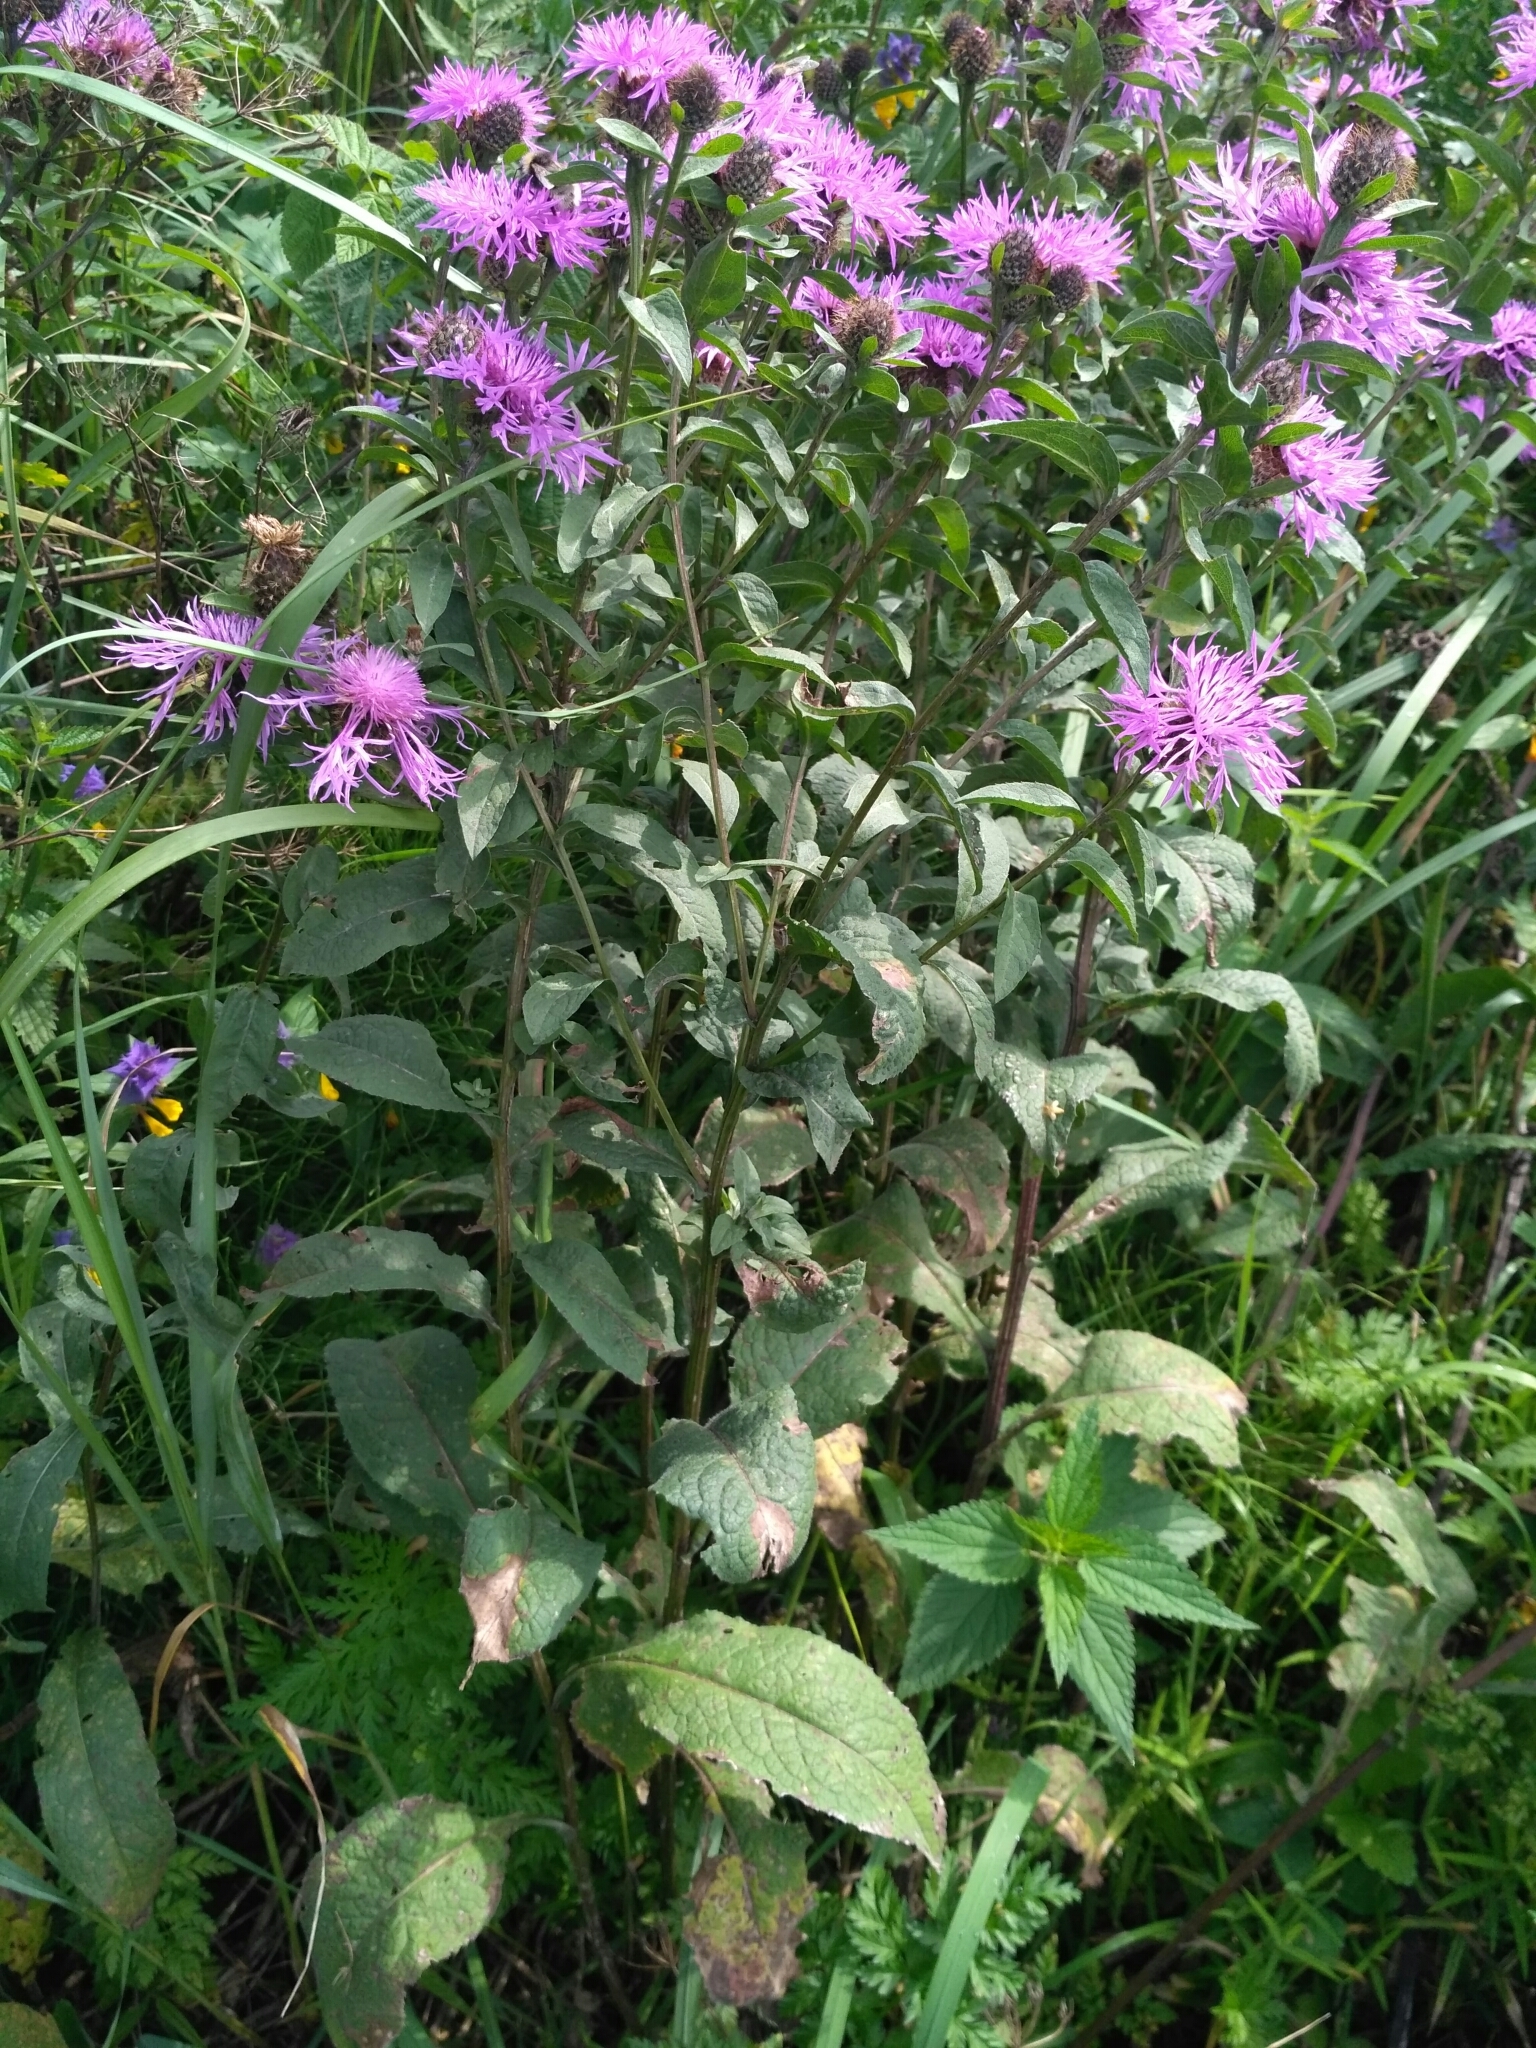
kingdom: Plantae
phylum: Tracheophyta
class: Magnoliopsida
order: Asterales
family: Asteraceae
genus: Centaurea
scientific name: Centaurea pseudophrygia
